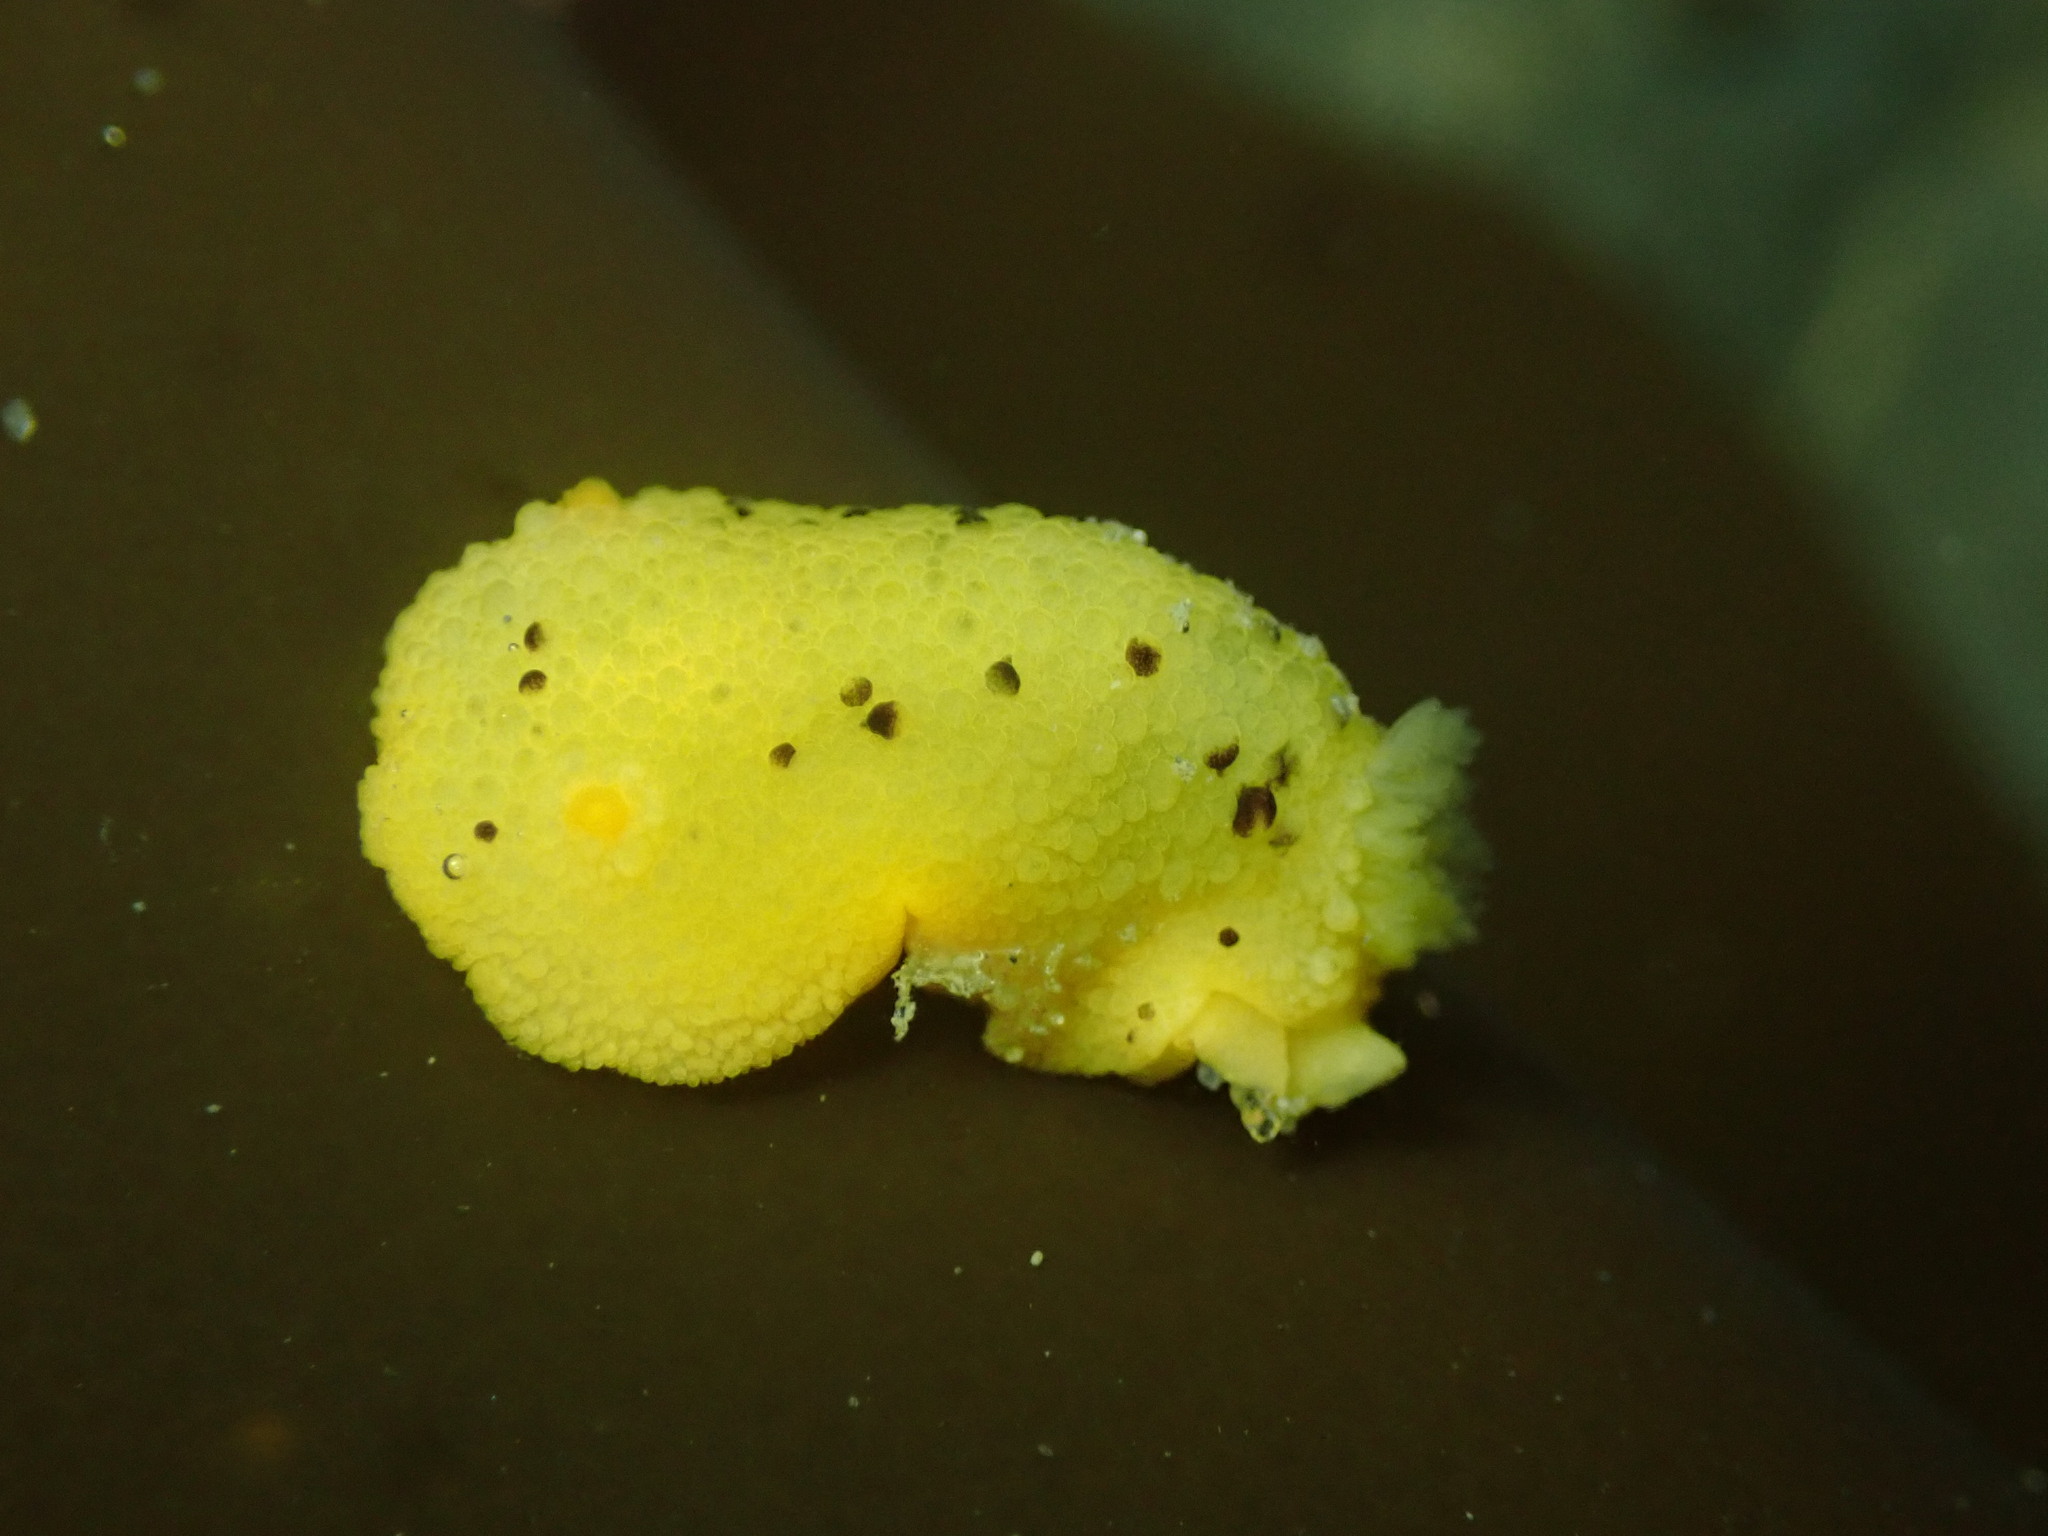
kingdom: Animalia
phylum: Mollusca
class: Gastropoda
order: Nudibranchia
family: Dorididae
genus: Doris
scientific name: Doris montereyensis
